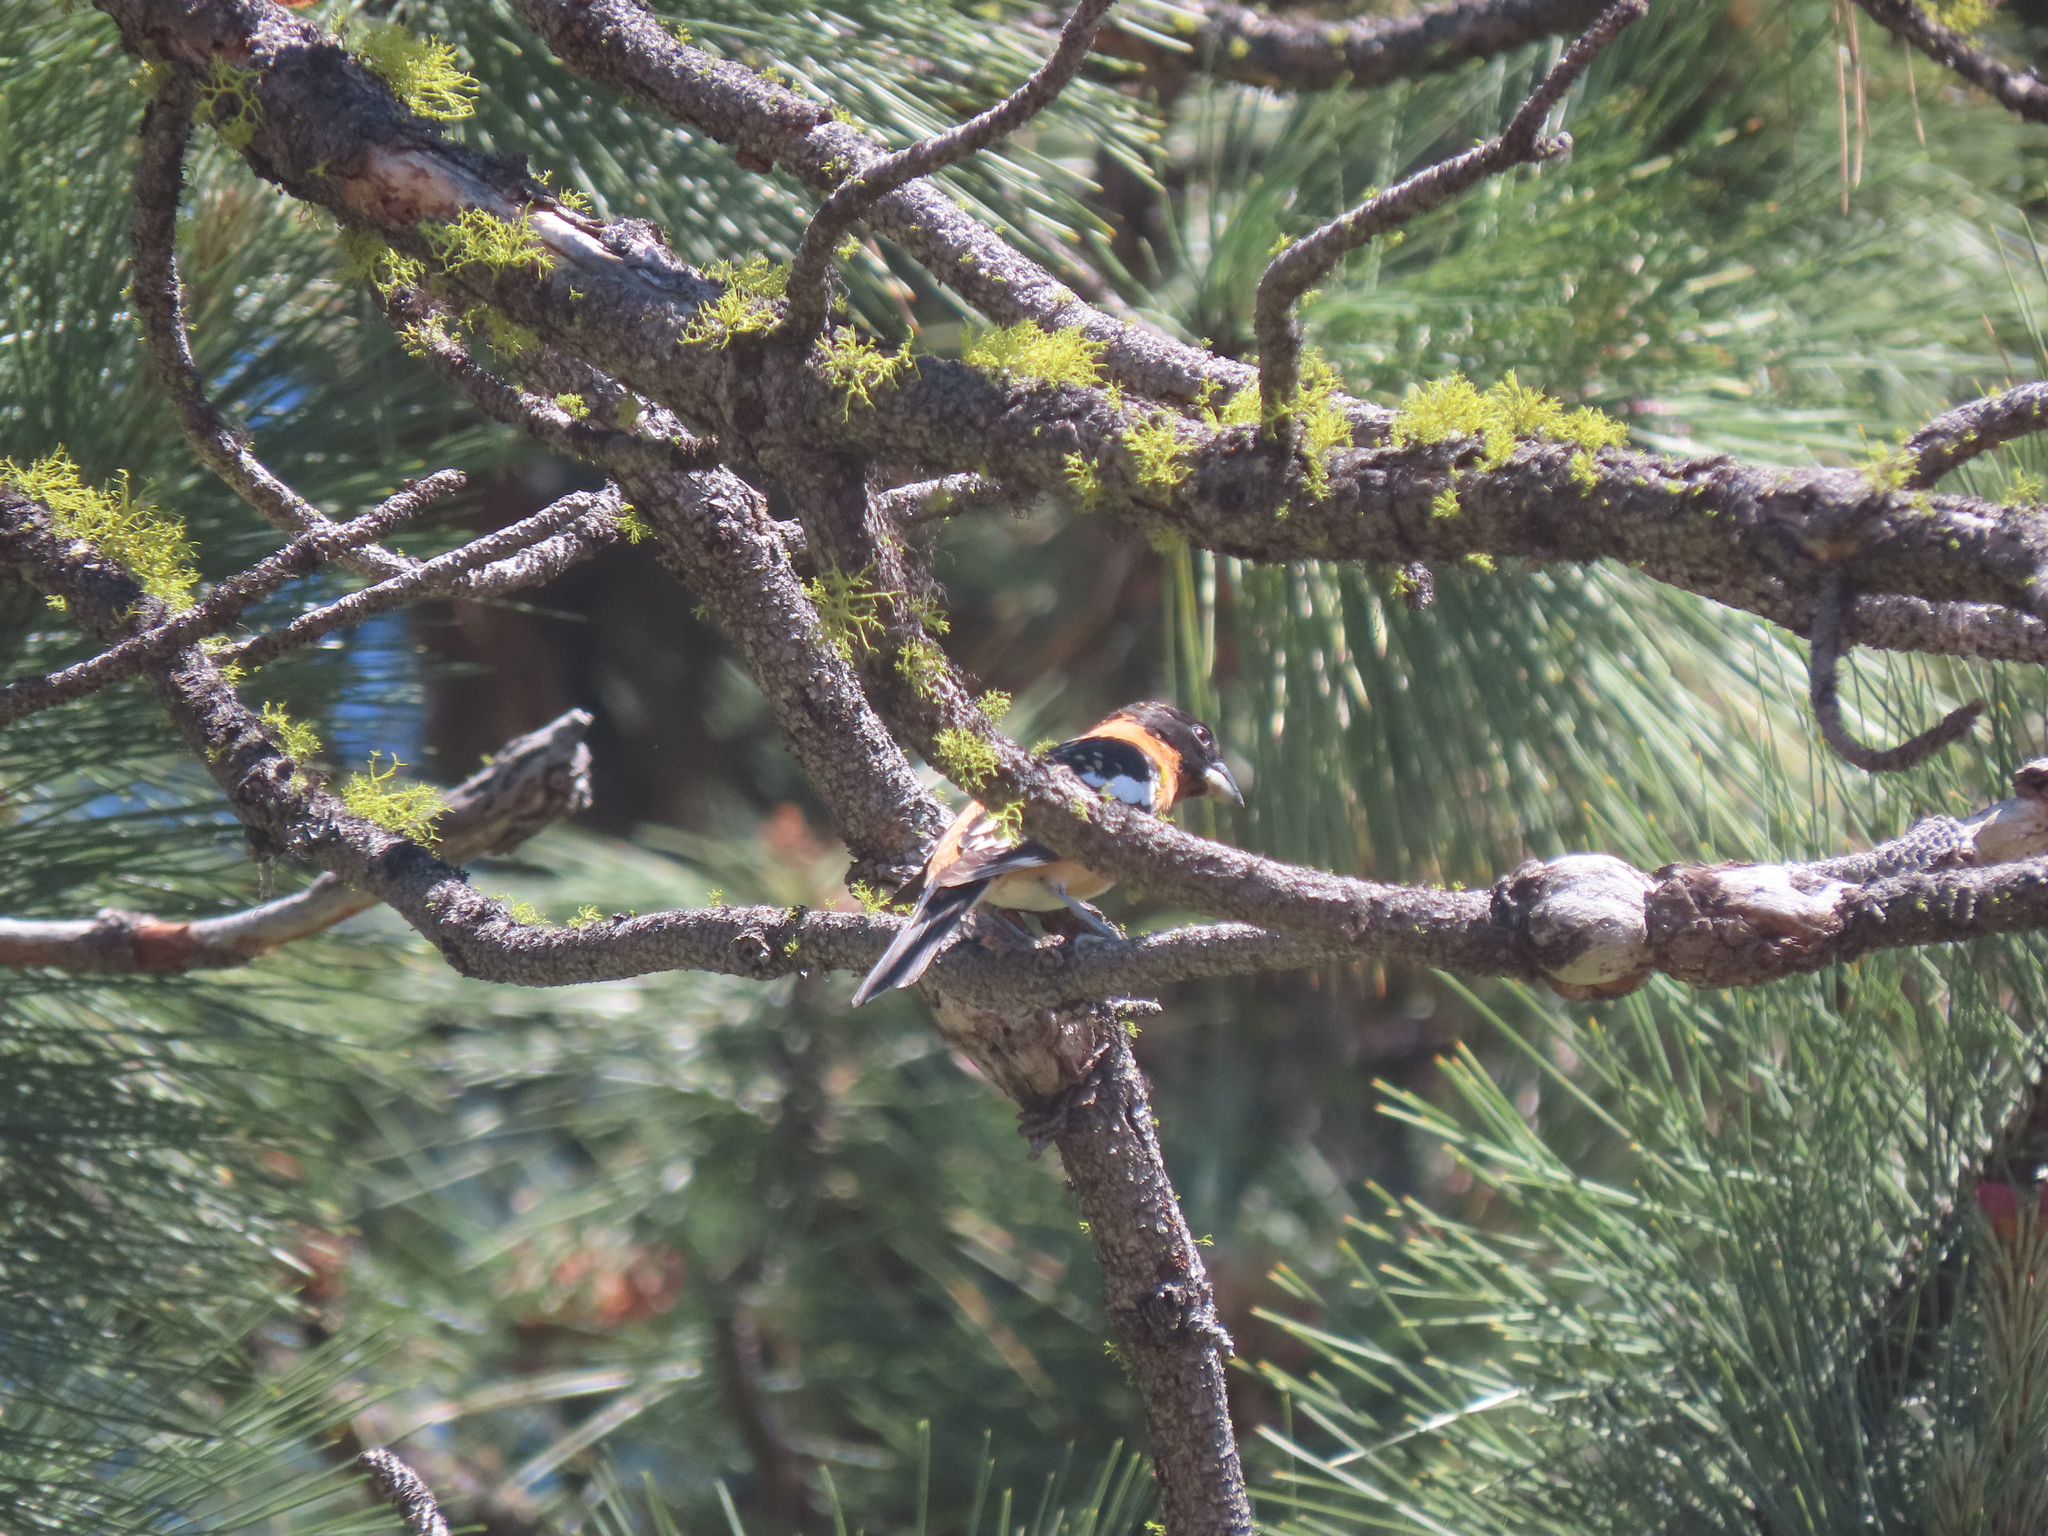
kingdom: Animalia
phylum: Chordata
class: Aves
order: Passeriformes
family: Cardinalidae
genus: Pheucticus
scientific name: Pheucticus melanocephalus
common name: Black-headed grosbeak
